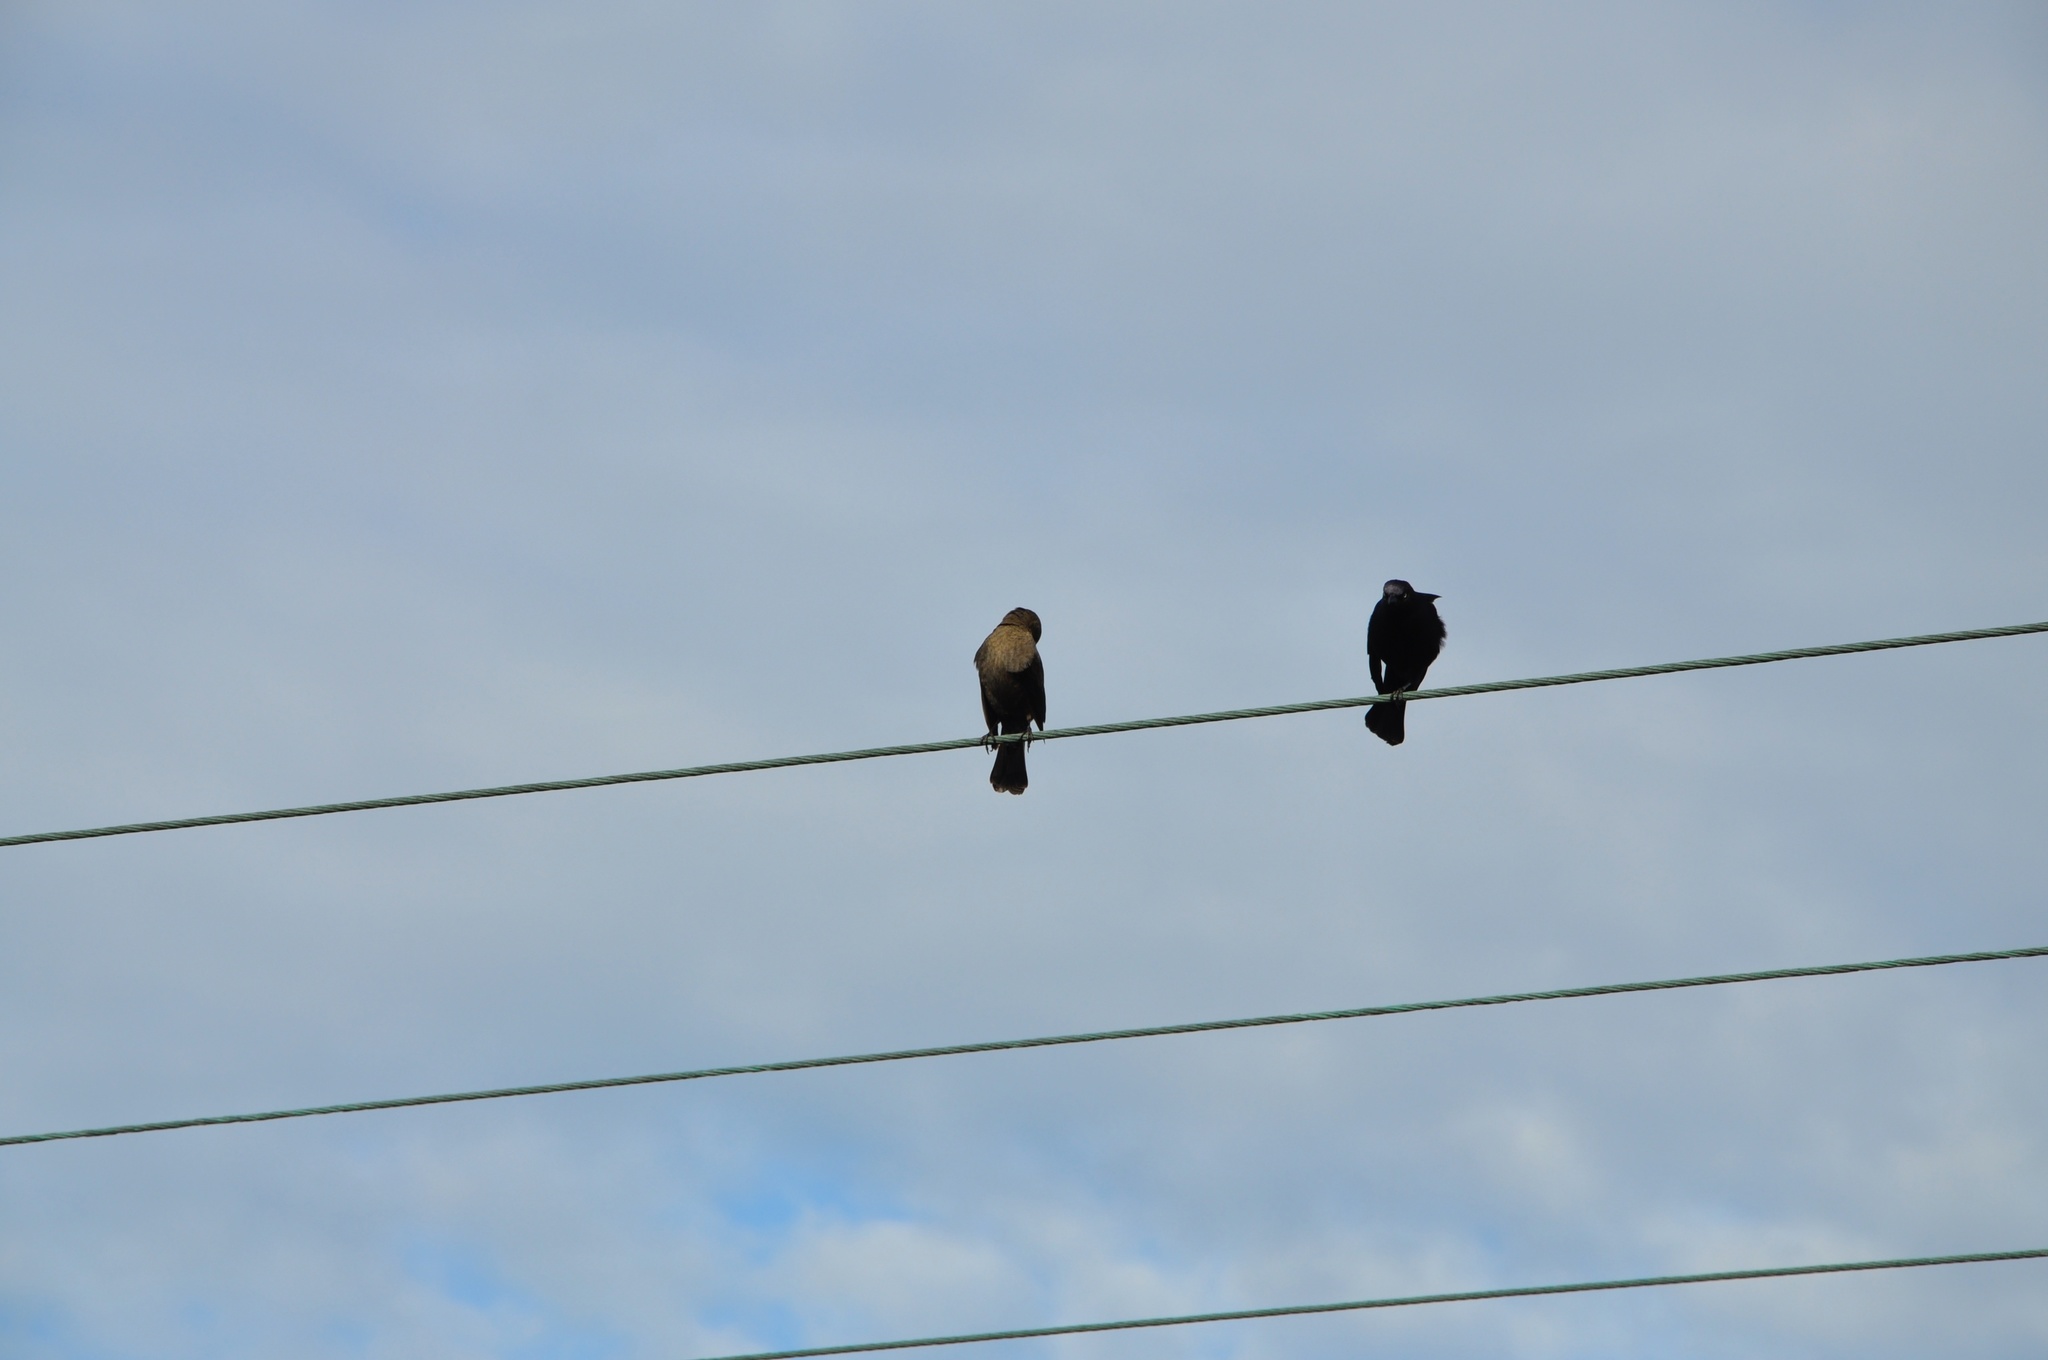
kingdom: Animalia
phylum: Chordata
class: Aves
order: Passeriformes
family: Icteridae
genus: Agelaius
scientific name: Agelaius phoeniceus
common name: Red-winged blackbird
